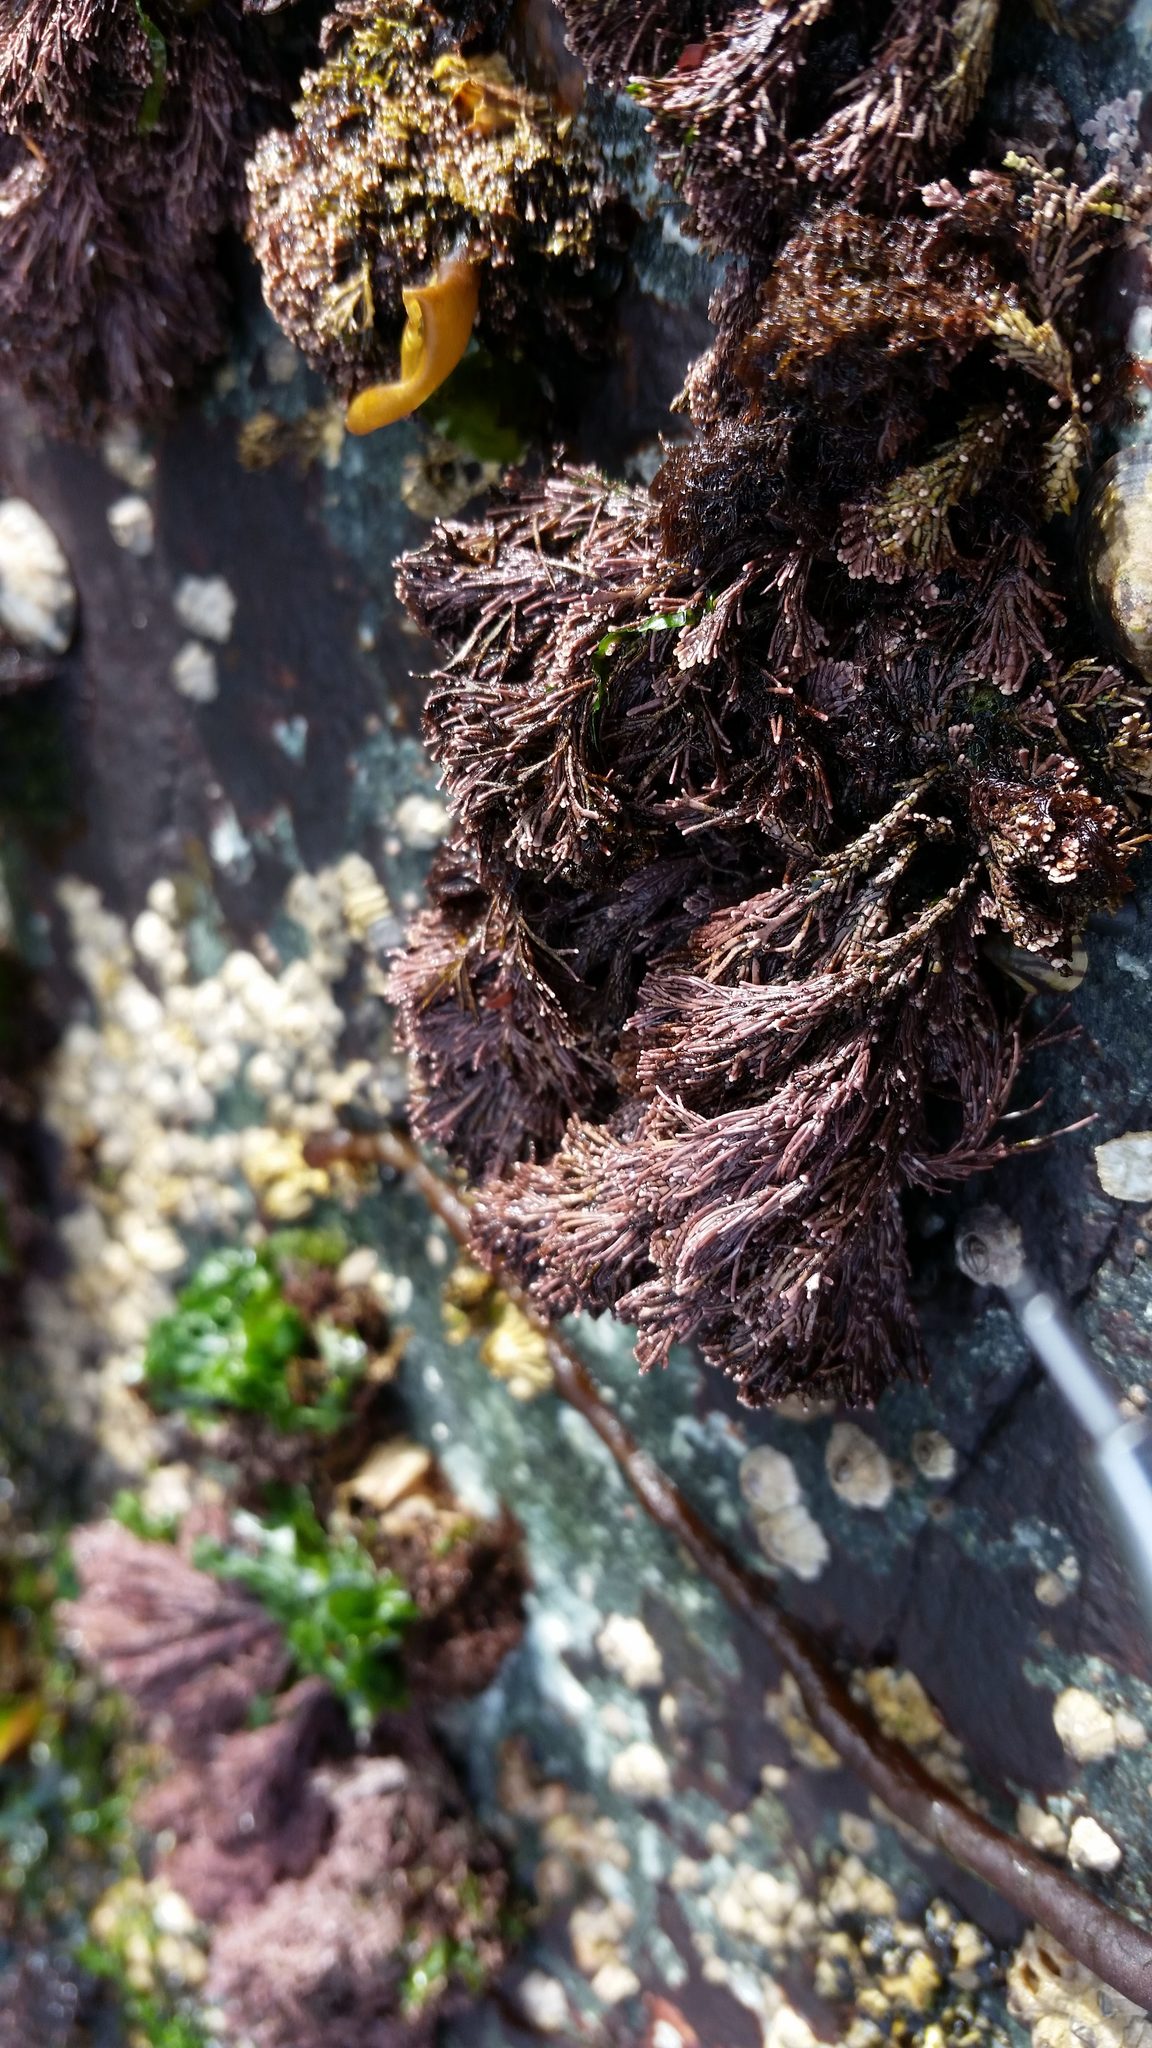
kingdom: Plantae
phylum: Rhodophyta
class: Florideophyceae
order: Corallinales
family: Corallinaceae
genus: Corallina
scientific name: Corallina vancouveriensis
